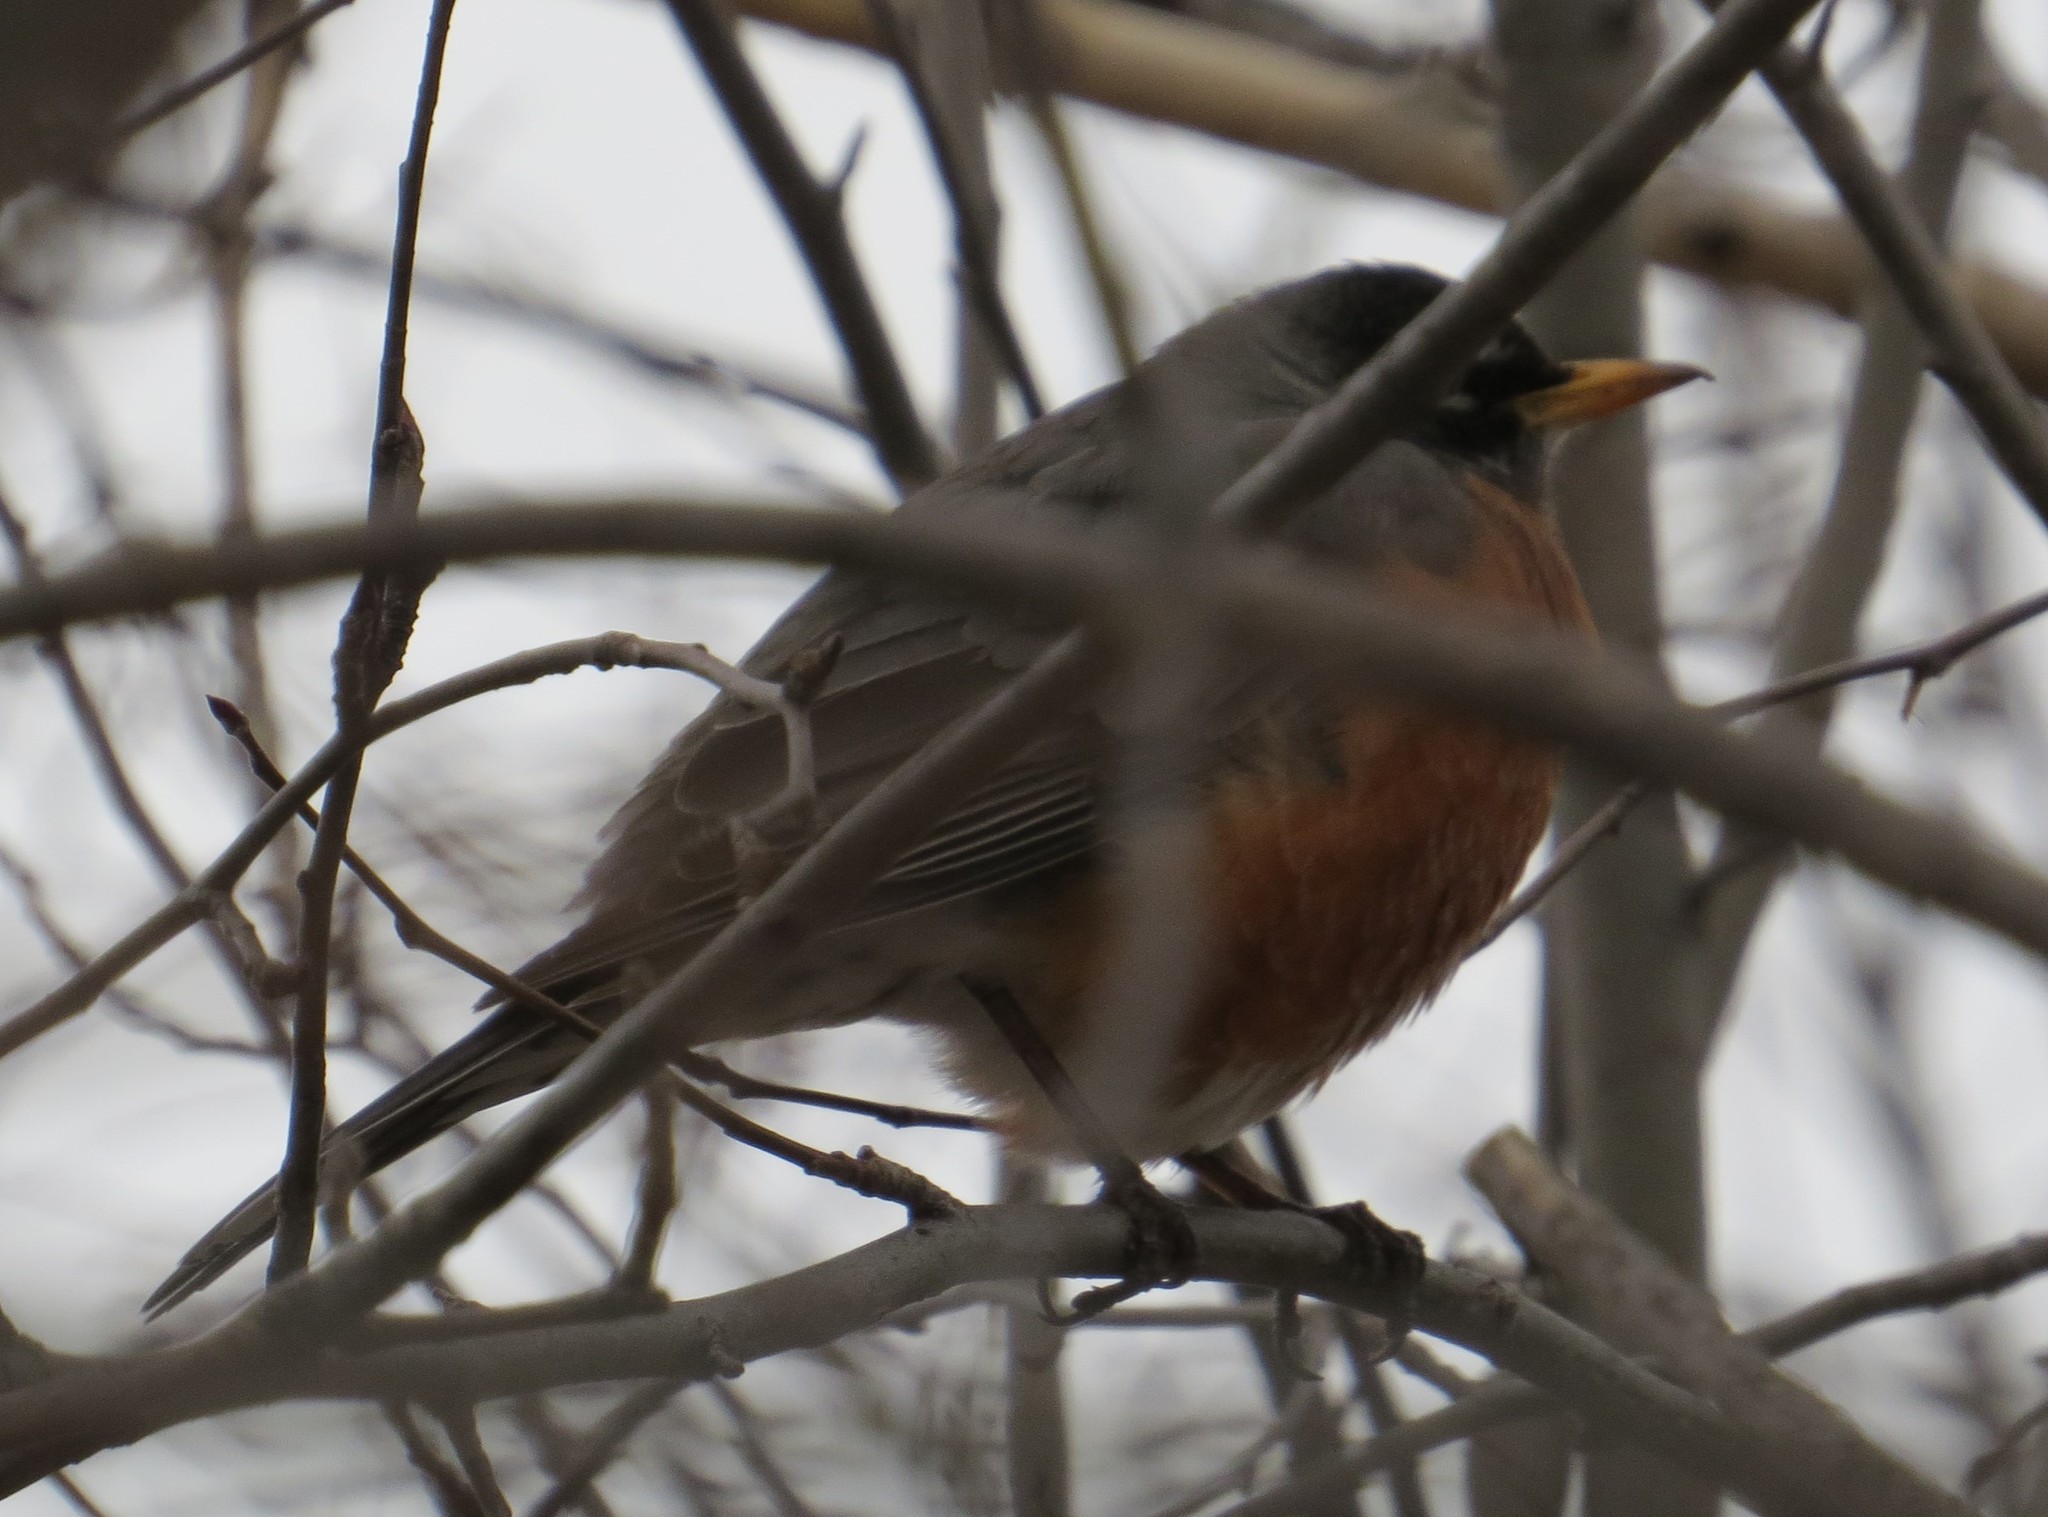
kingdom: Animalia
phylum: Chordata
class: Aves
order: Passeriformes
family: Turdidae
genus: Turdus
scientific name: Turdus migratorius
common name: American robin
